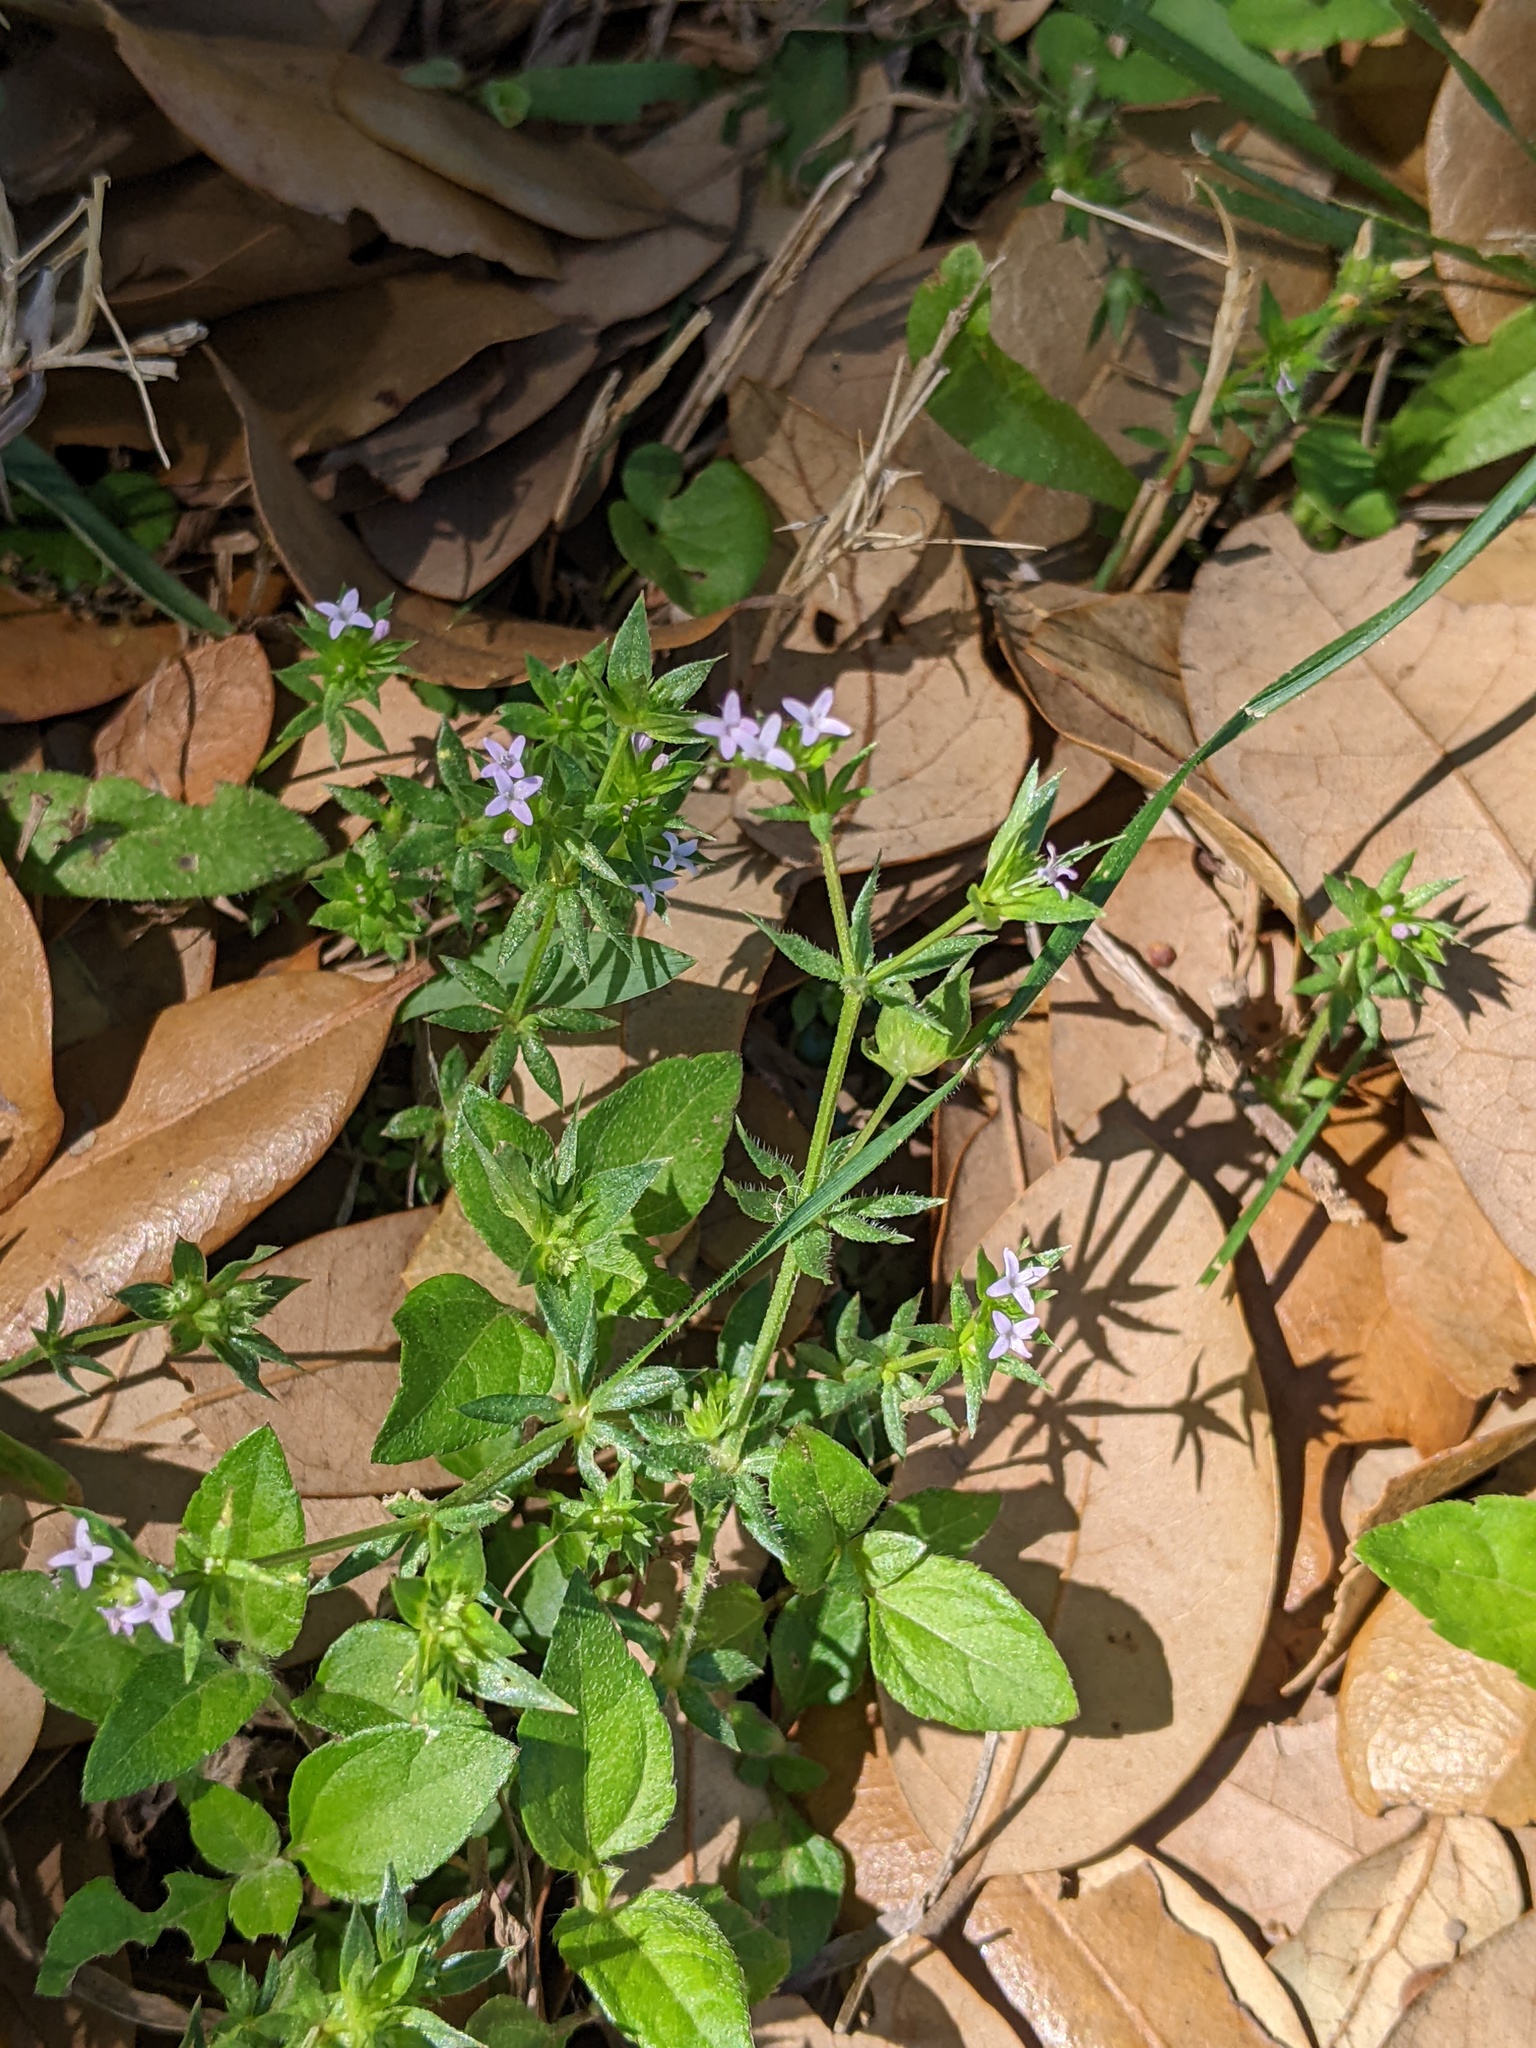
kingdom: Plantae
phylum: Tracheophyta
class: Magnoliopsida
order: Gentianales
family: Rubiaceae
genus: Sherardia
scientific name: Sherardia arvensis
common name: Field madder
